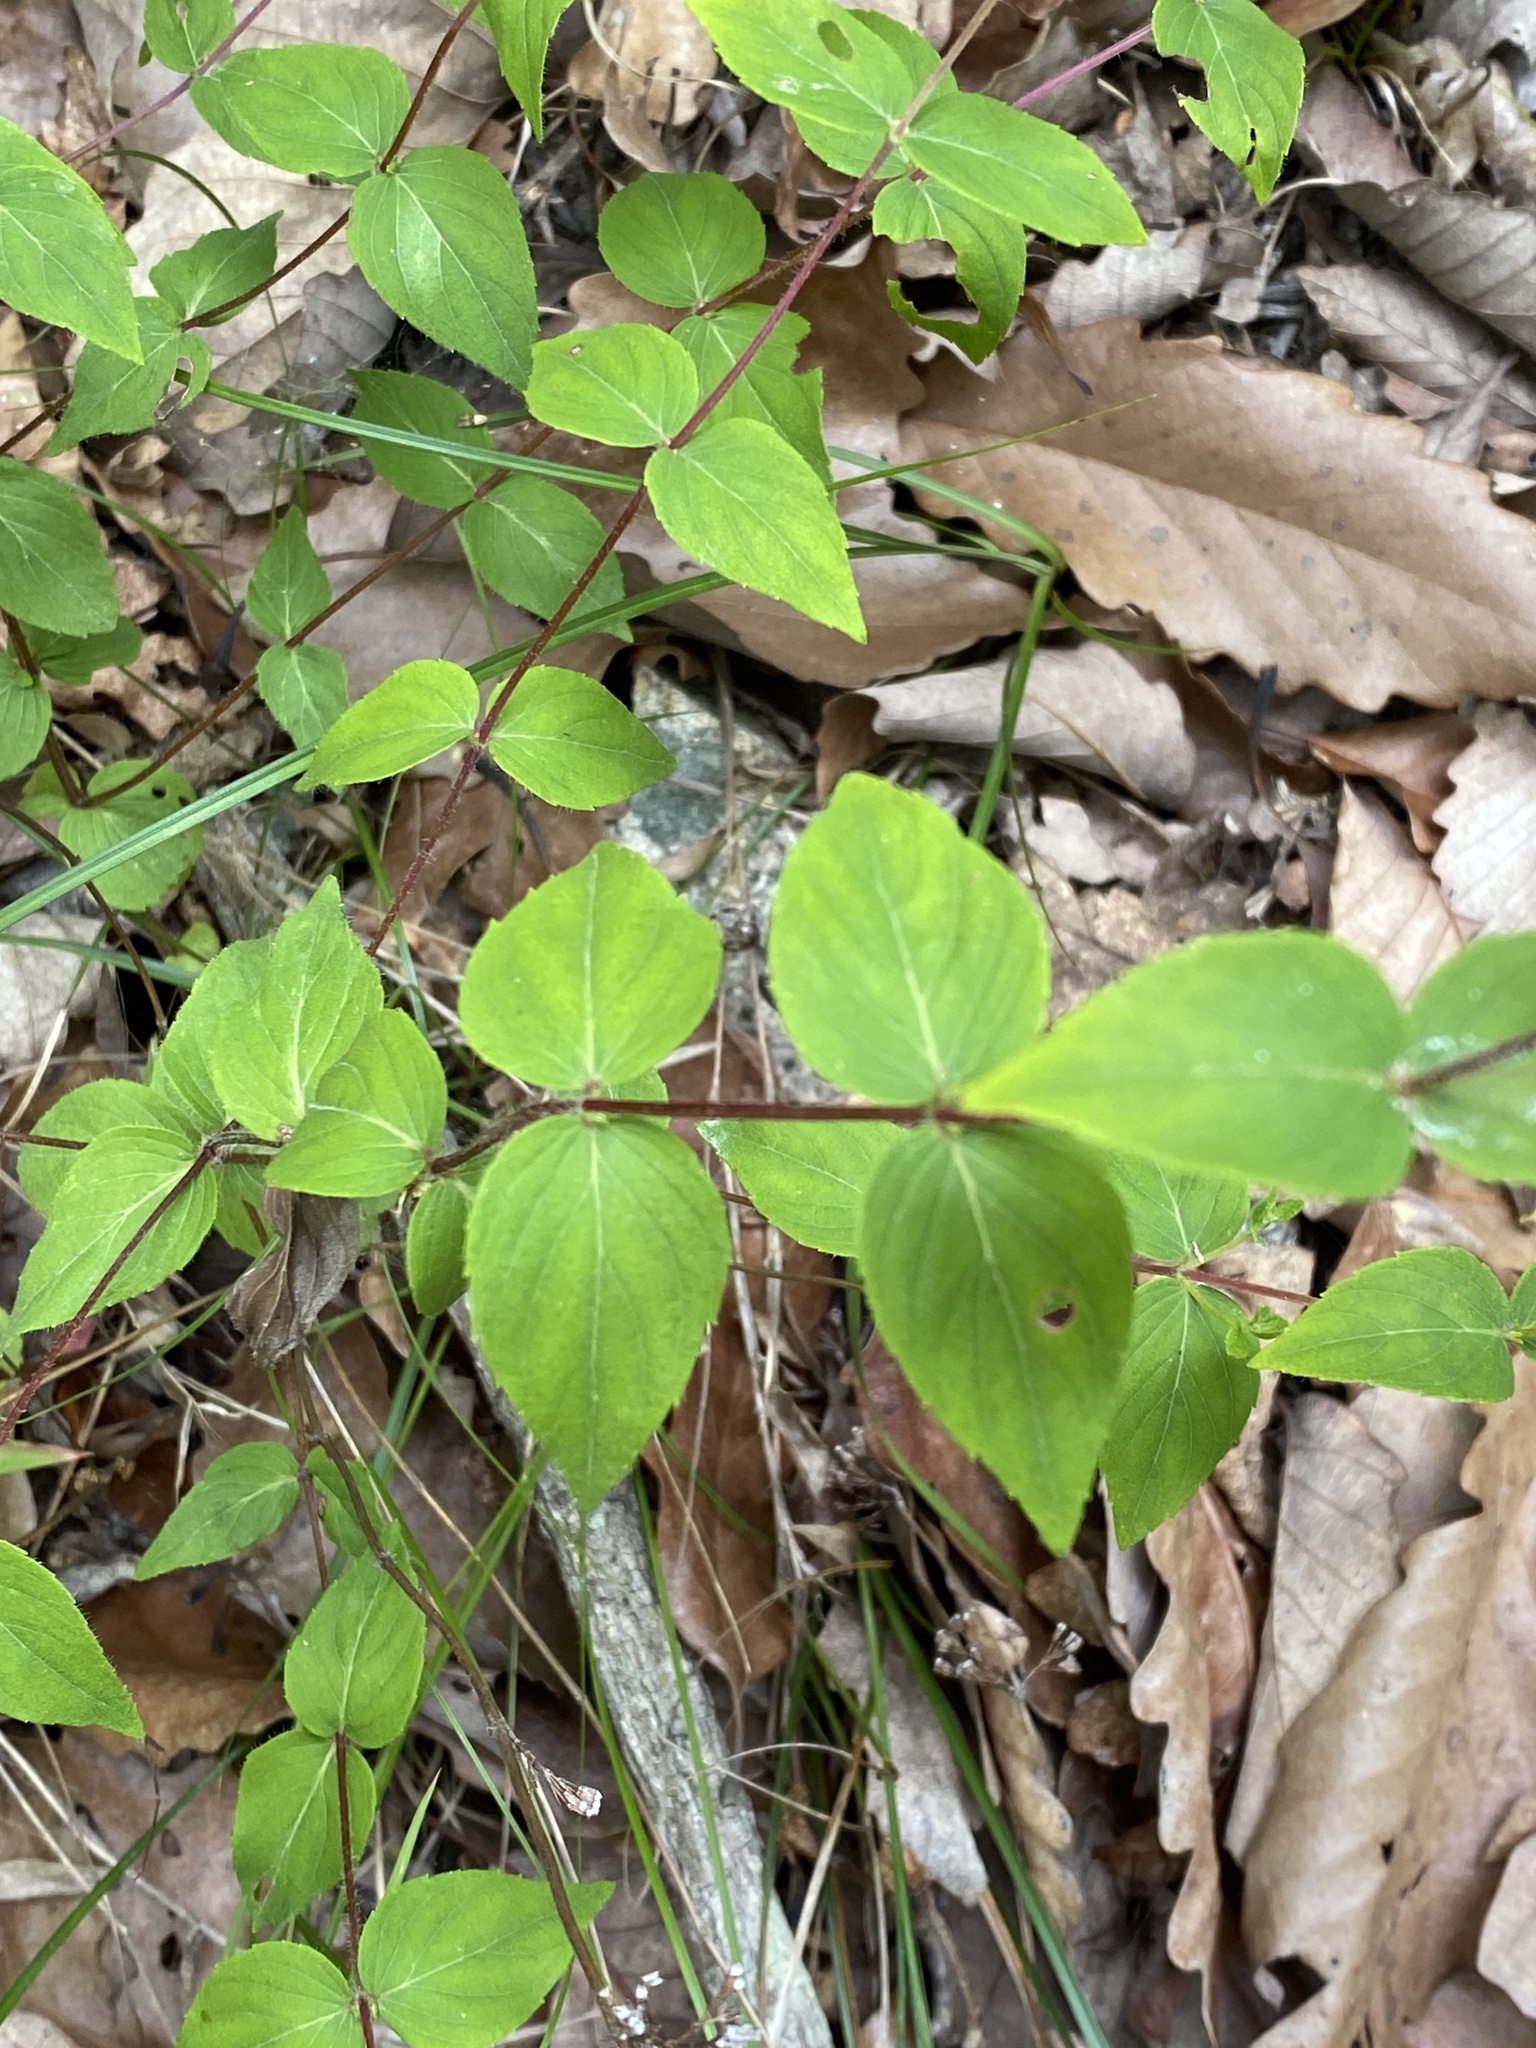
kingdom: Plantae
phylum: Tracheophyta
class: Magnoliopsida
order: Lamiales
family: Lamiaceae
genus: Cunila
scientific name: Cunila origanoides
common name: American dittany
